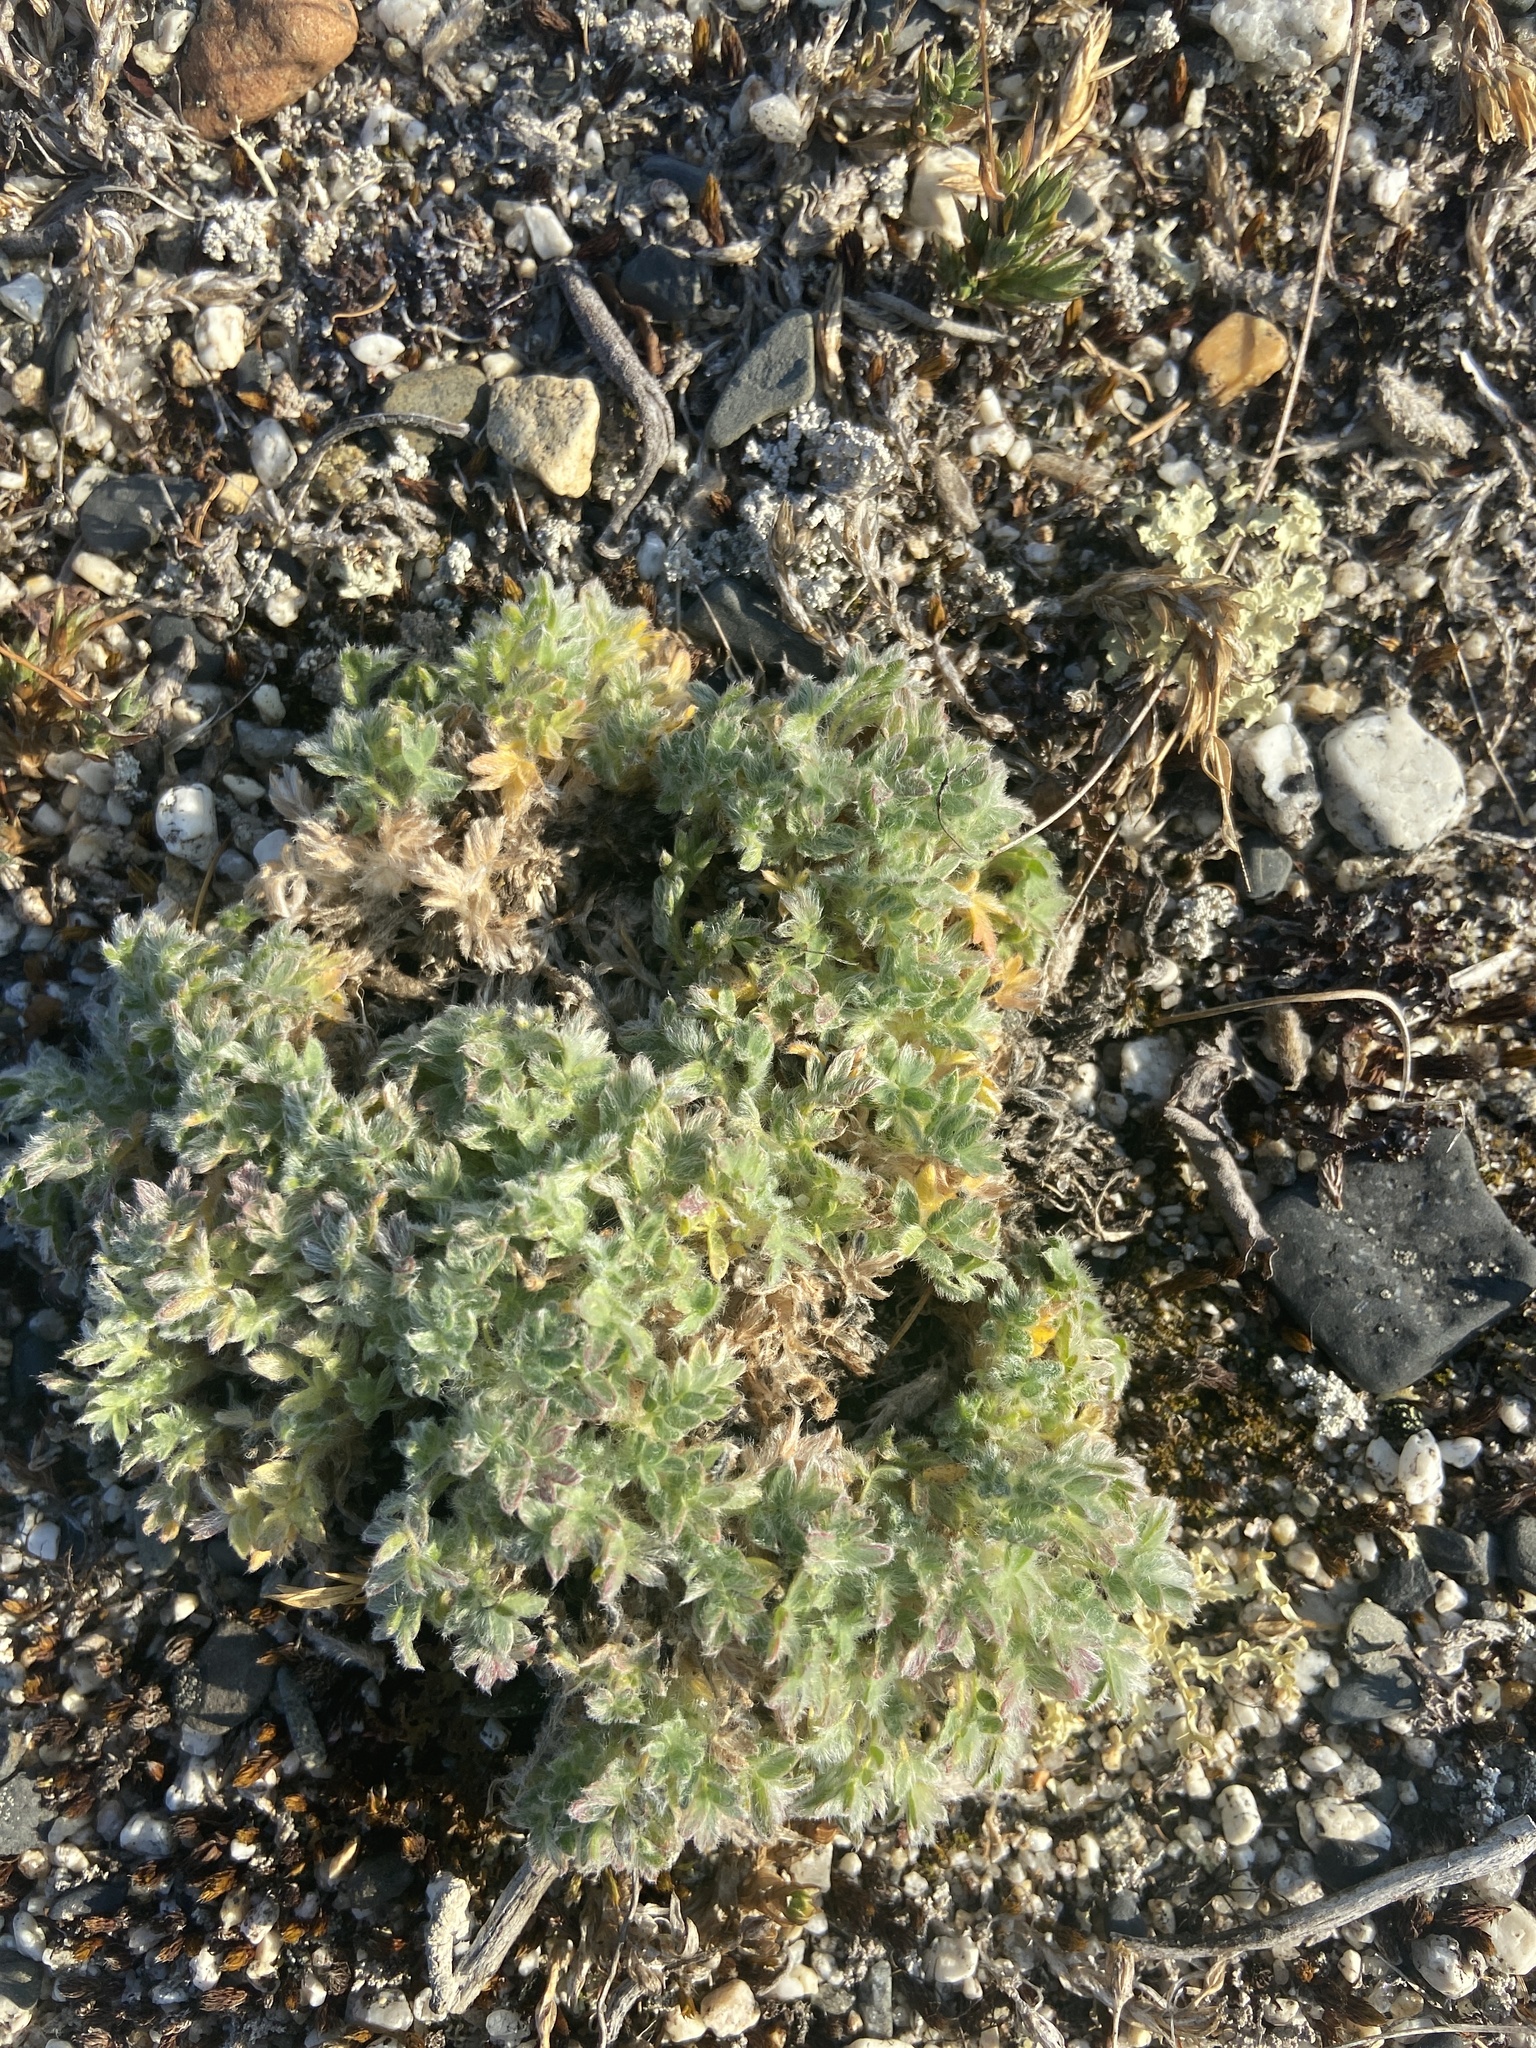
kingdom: Plantae
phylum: Tracheophyta
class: Magnoliopsida
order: Fabales
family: Fabaceae
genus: Oxytropis
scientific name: Oxytropis susumanica
